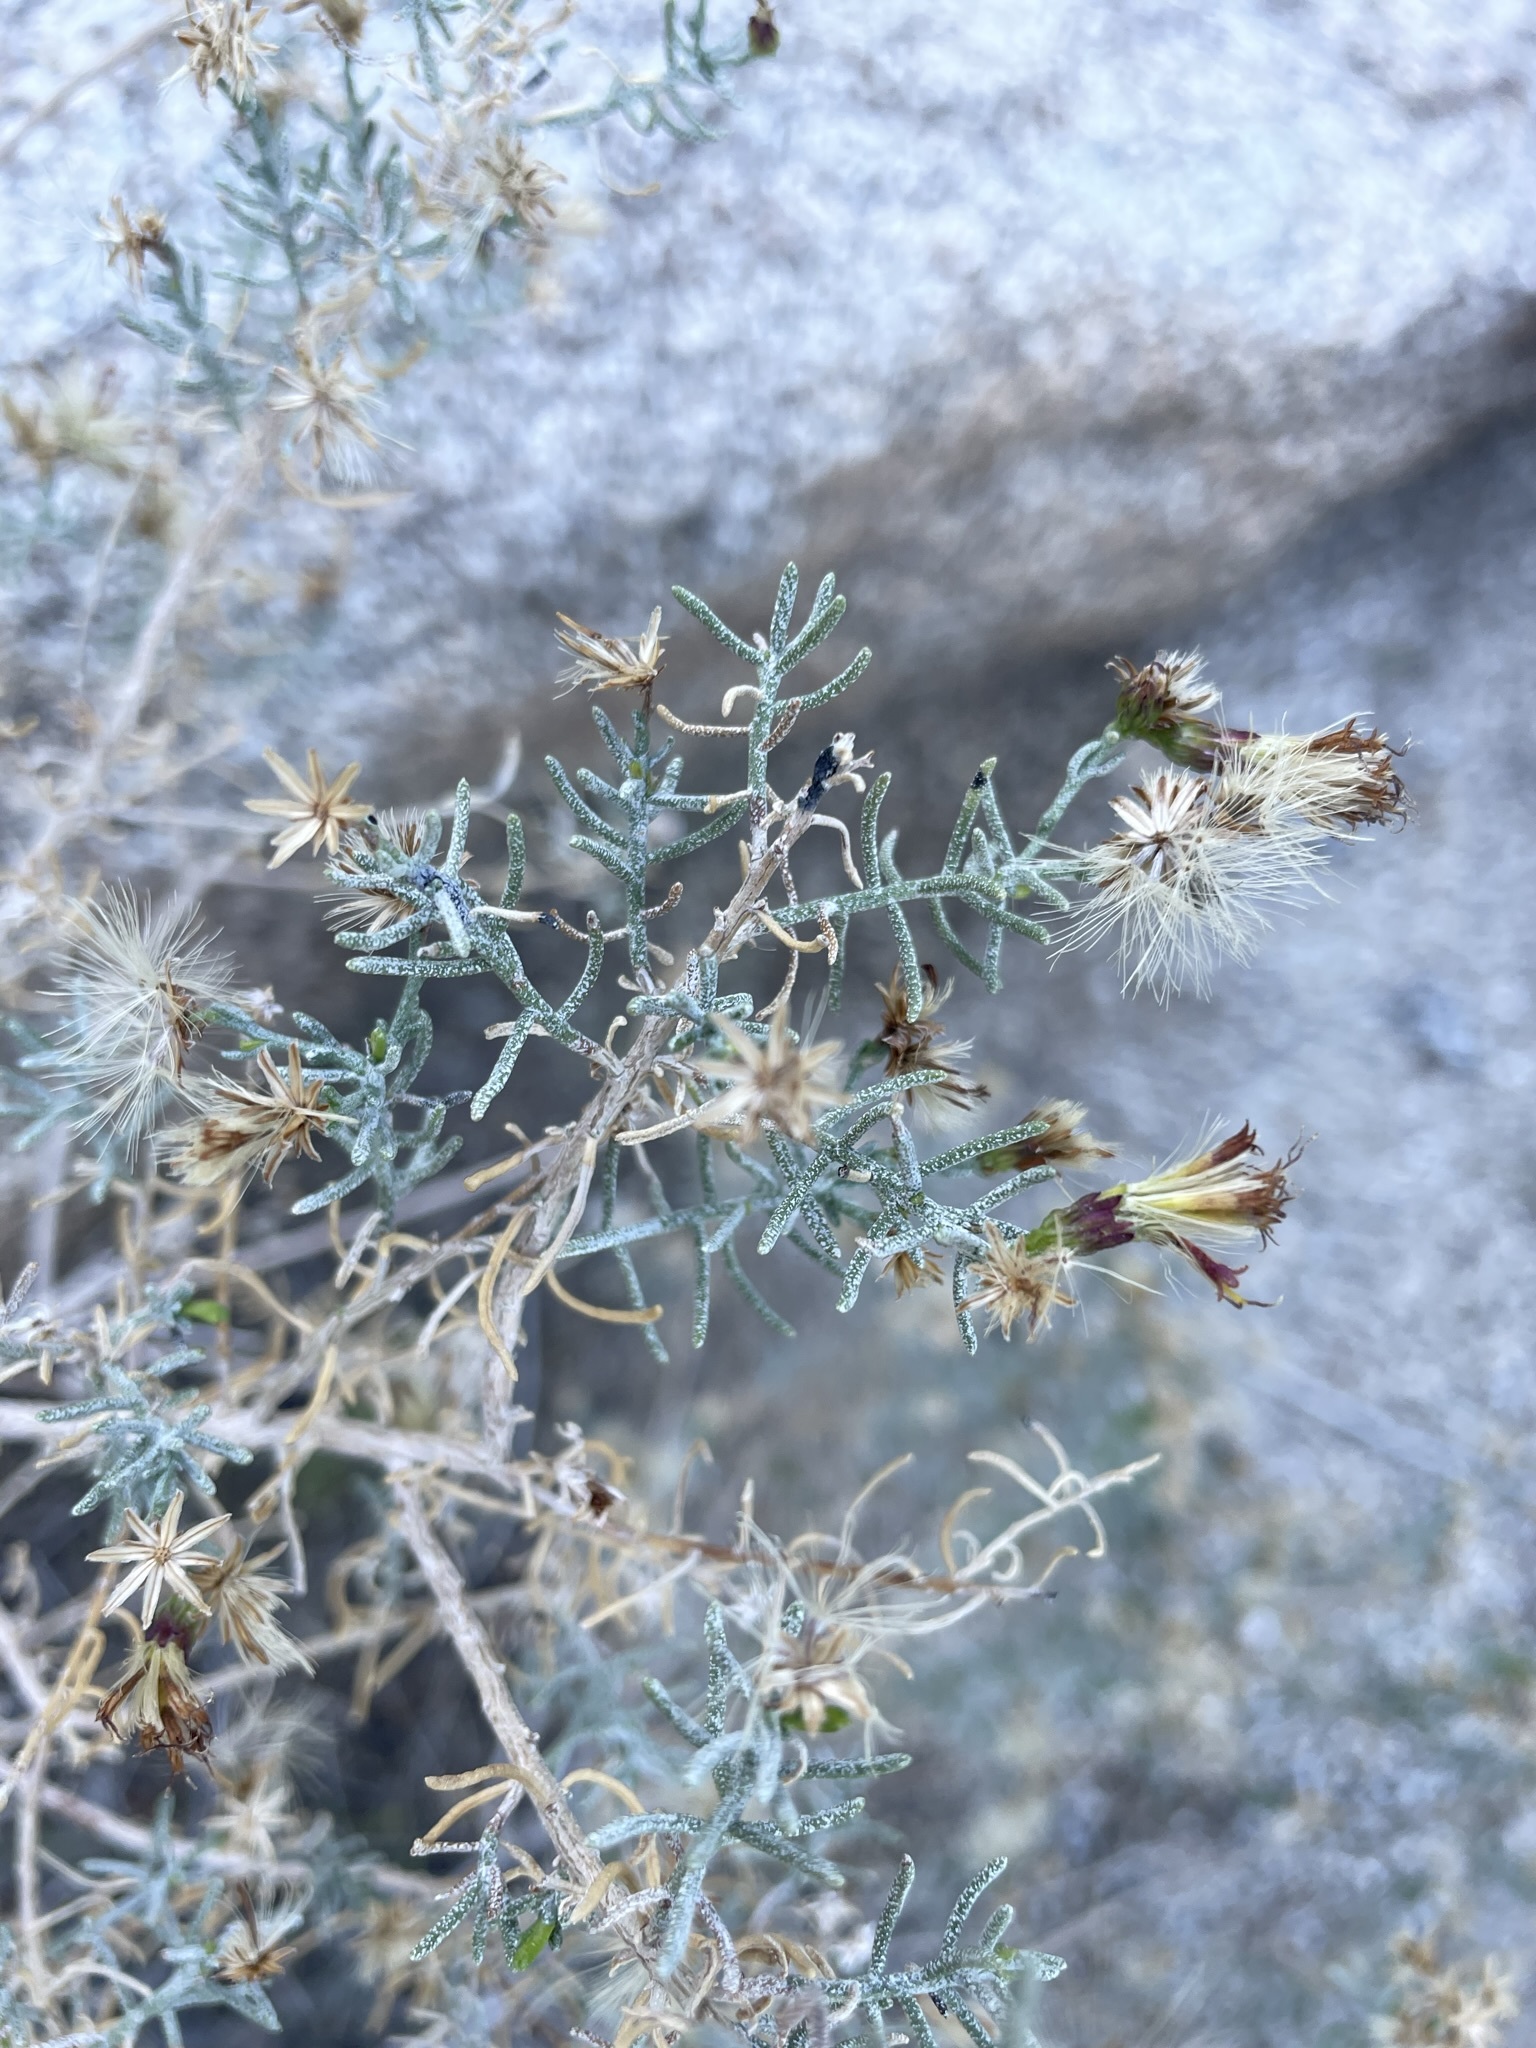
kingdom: Plantae
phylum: Tracheophyta
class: Magnoliopsida
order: Asterales
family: Asteraceae
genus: Ericameria
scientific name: Ericameria brachylepis
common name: Boundary goldenbush
